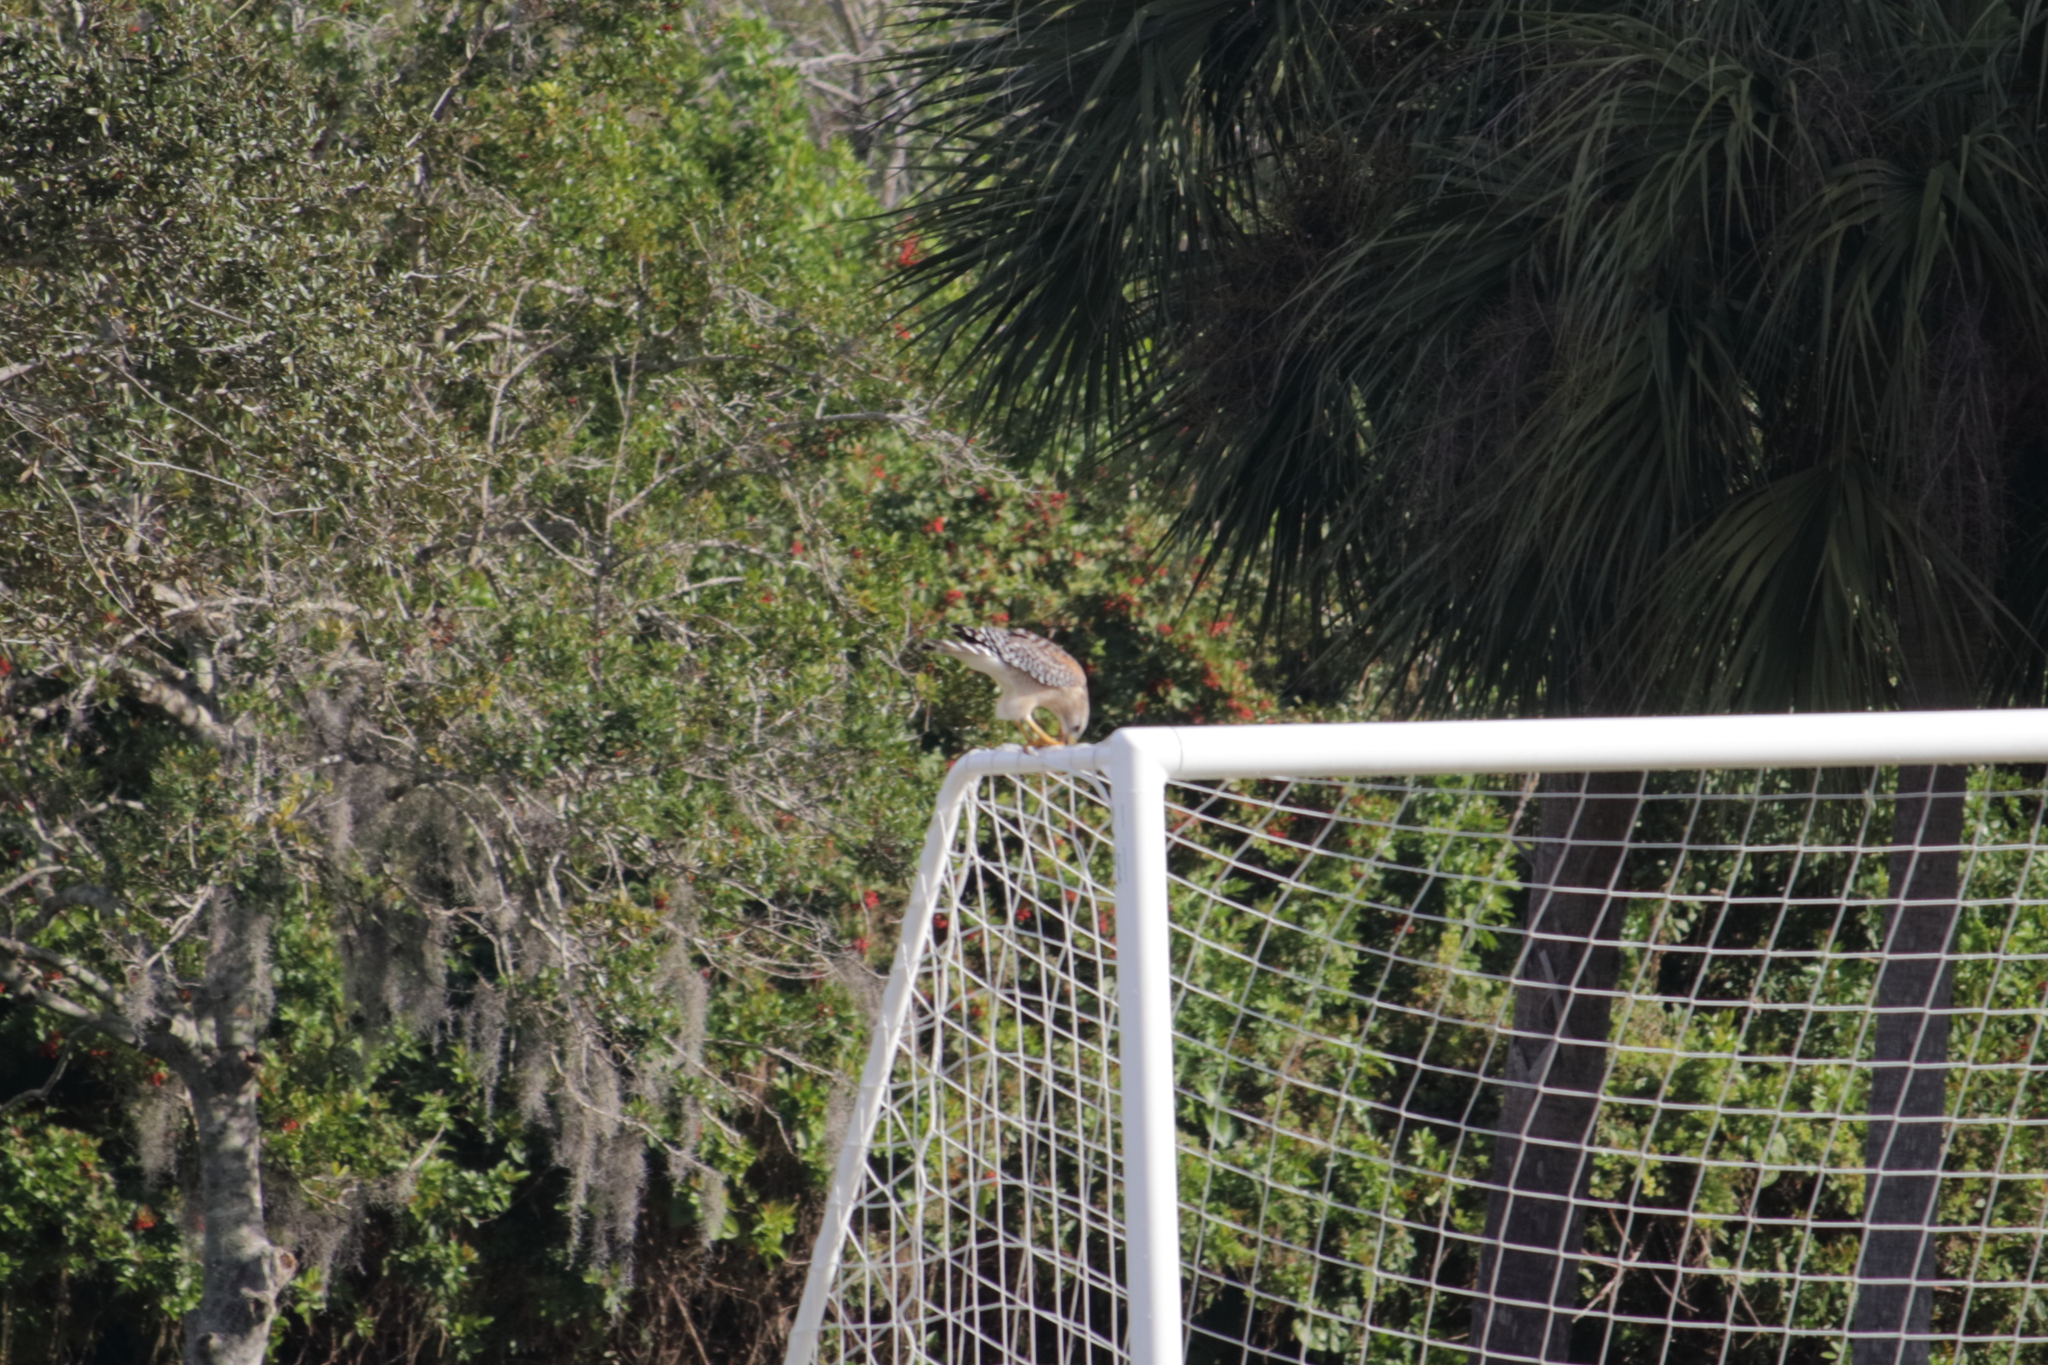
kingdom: Animalia
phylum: Chordata
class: Aves
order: Accipitriformes
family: Accipitridae
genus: Buteo
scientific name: Buteo lineatus
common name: Red-shouldered hawk
